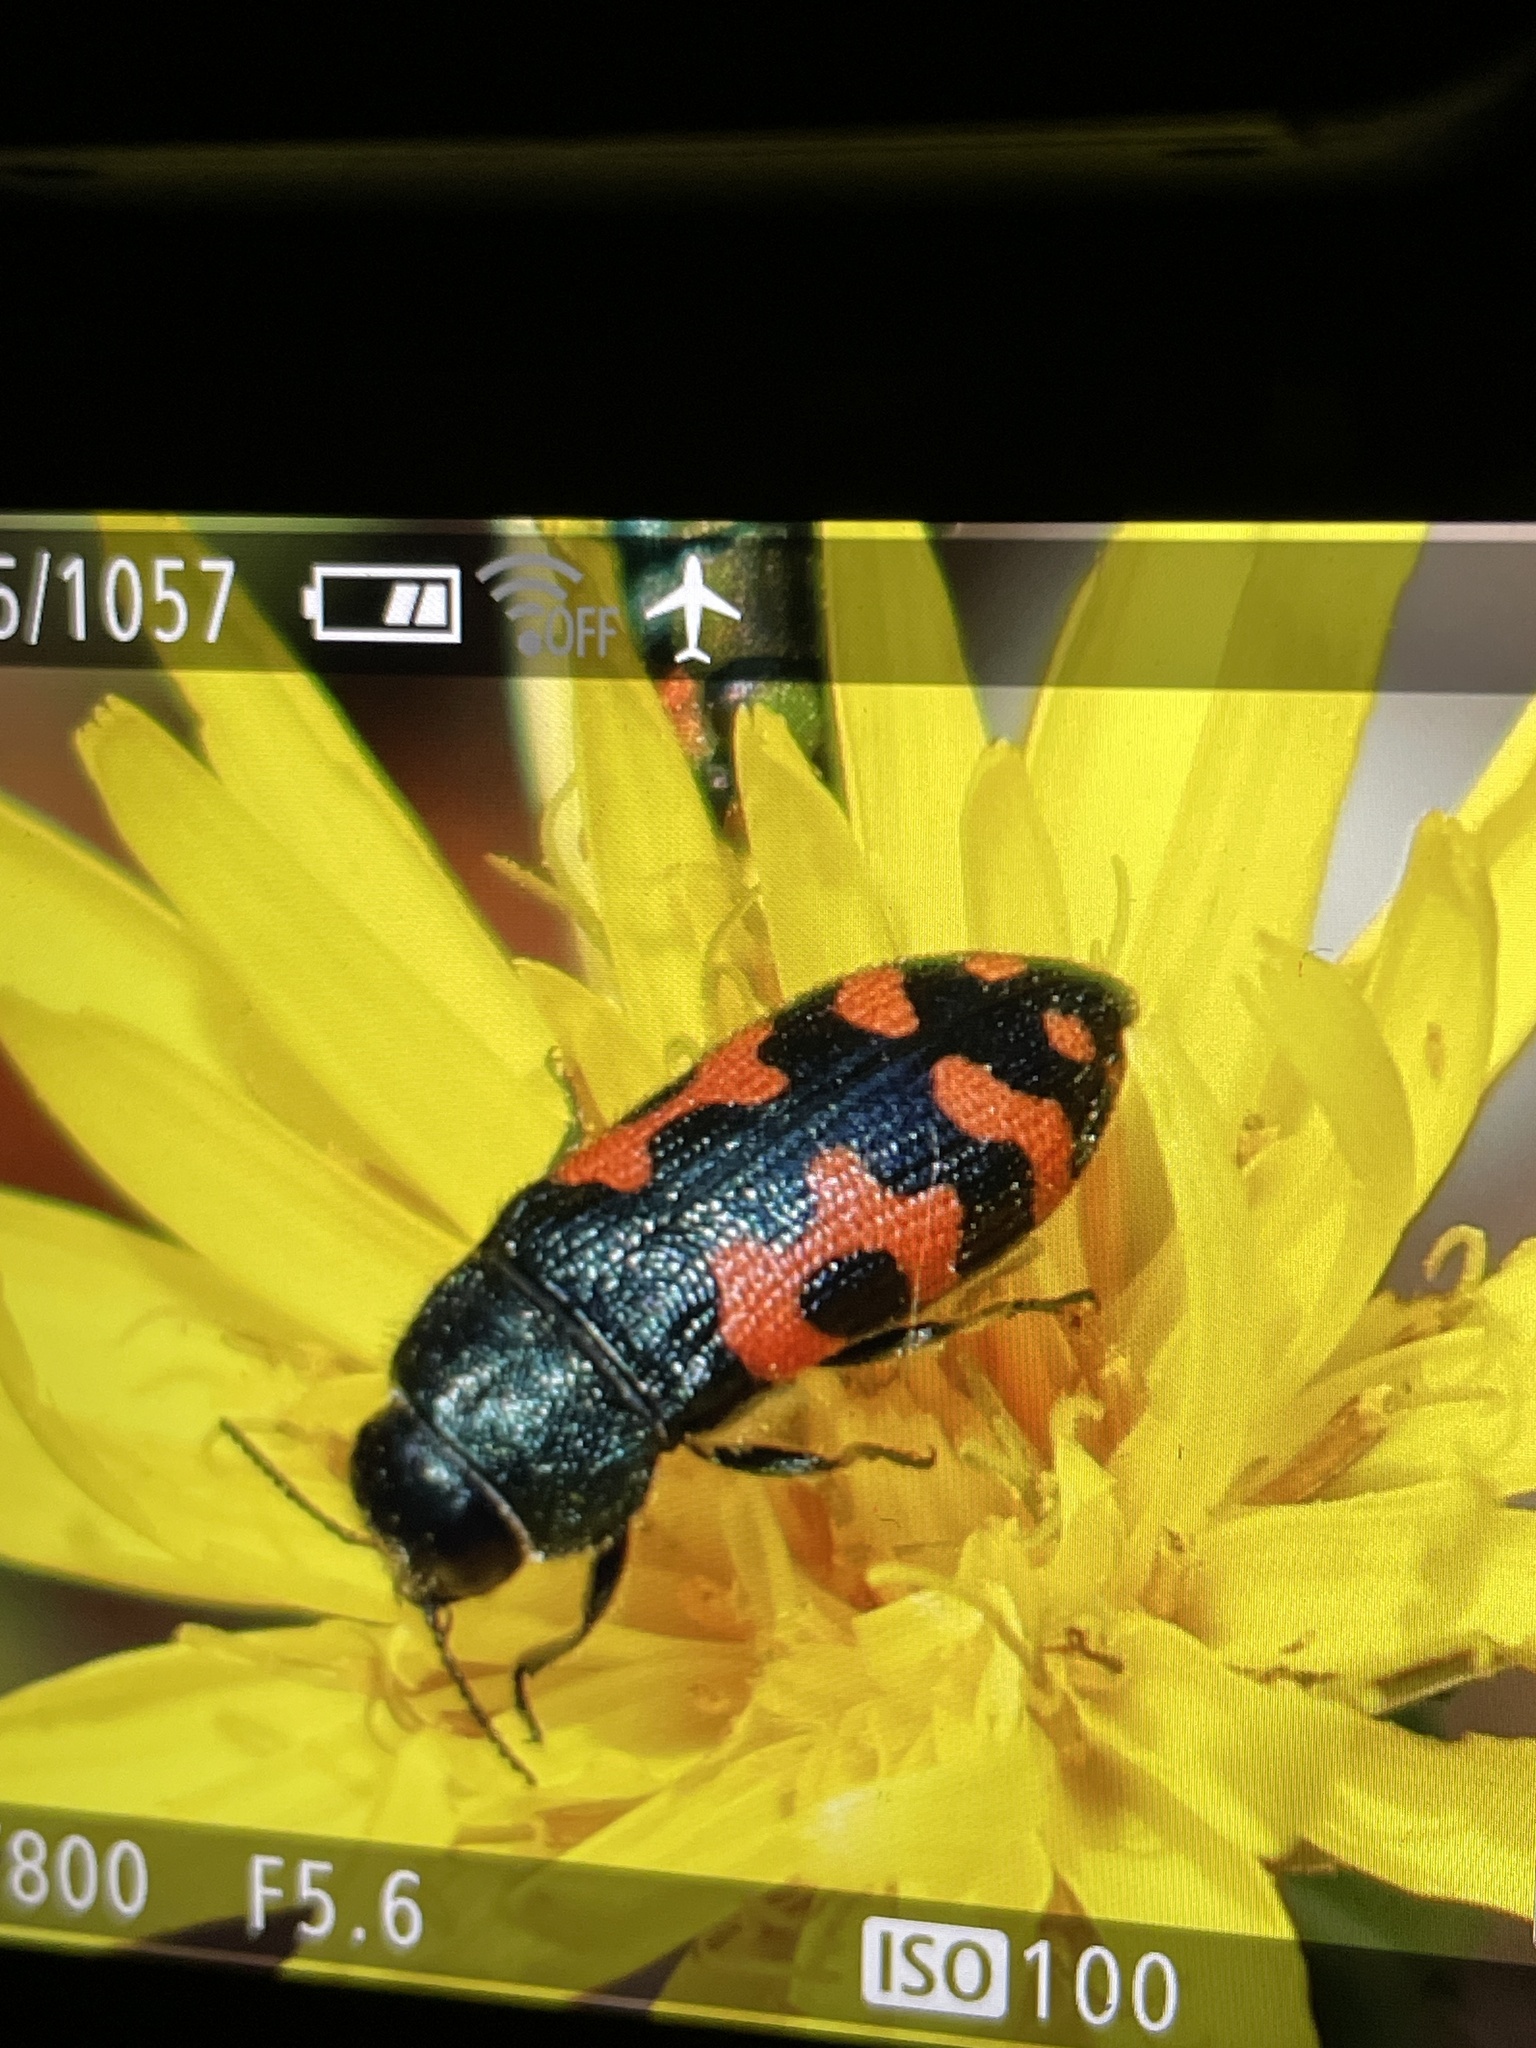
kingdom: Animalia
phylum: Arthropoda
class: Insecta
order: Coleoptera
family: Buprestidae
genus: Acmaeodera
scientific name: Acmaeodera ottomana
